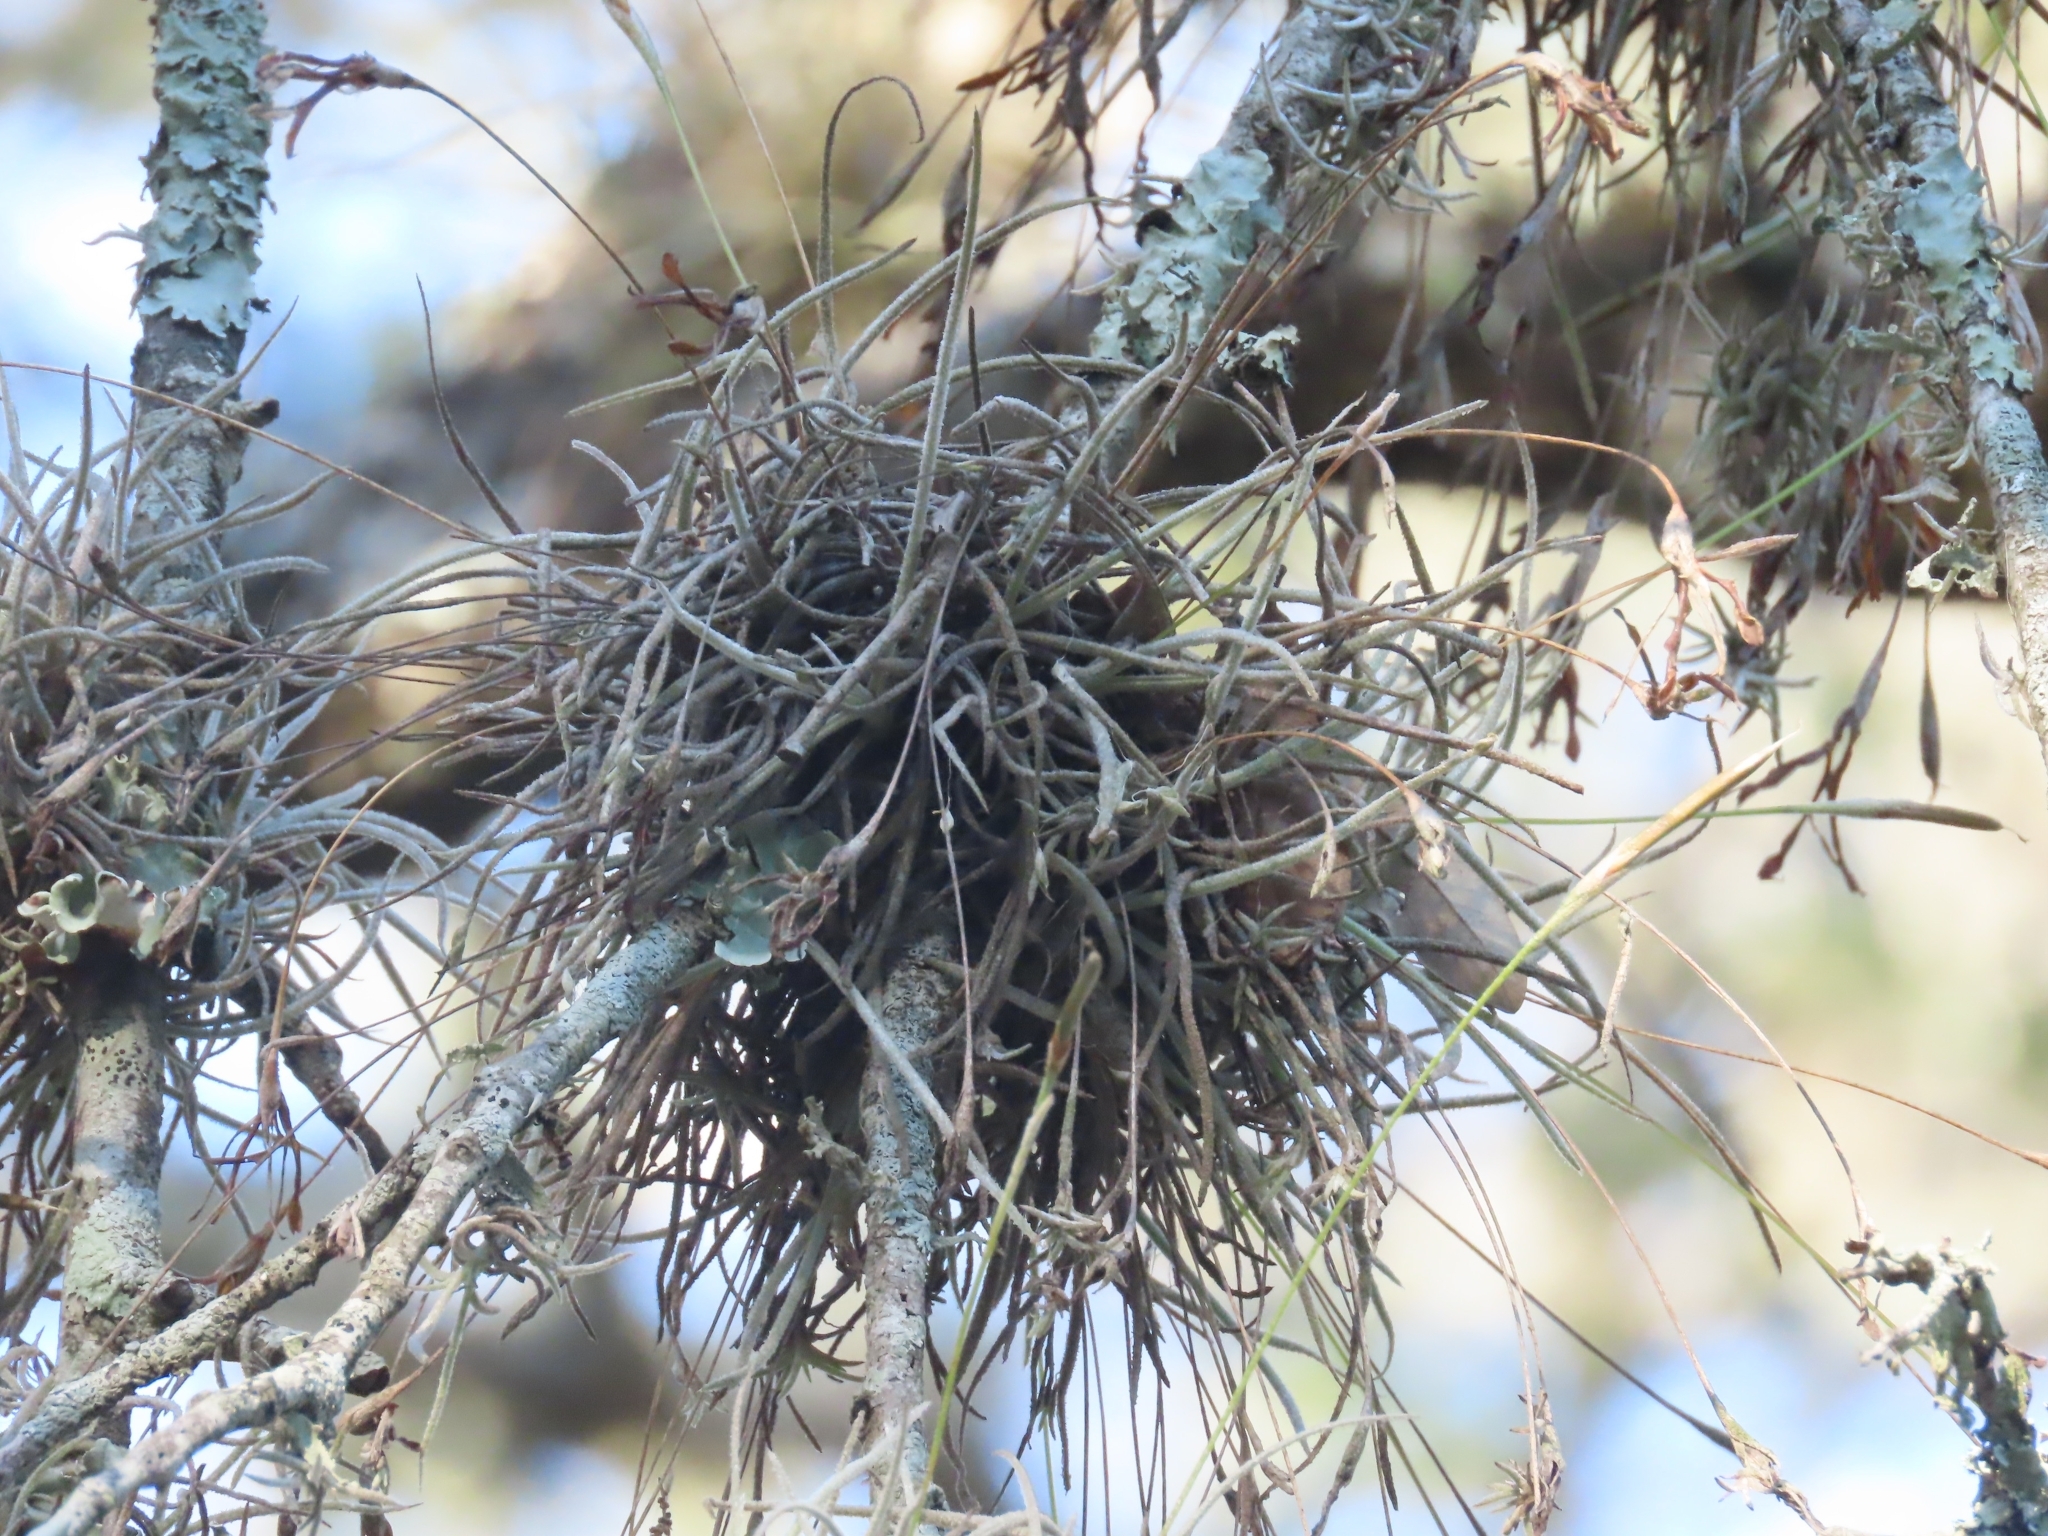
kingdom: Plantae
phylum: Tracheophyta
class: Liliopsida
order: Poales
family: Bromeliaceae
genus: Tillandsia
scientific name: Tillandsia recurvata
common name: Small ballmoss
